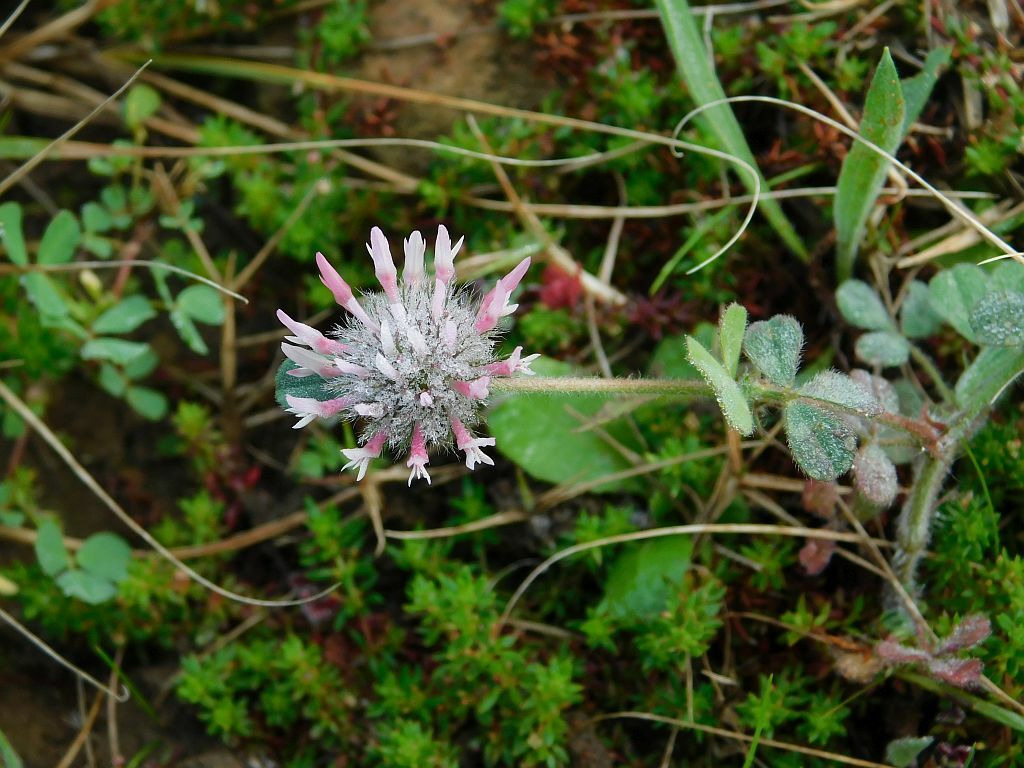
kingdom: Plantae
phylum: Tracheophyta
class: Magnoliopsida
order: Fabales
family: Fabaceae
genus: Trifolium
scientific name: Trifolium hirtum
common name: Rose clover
